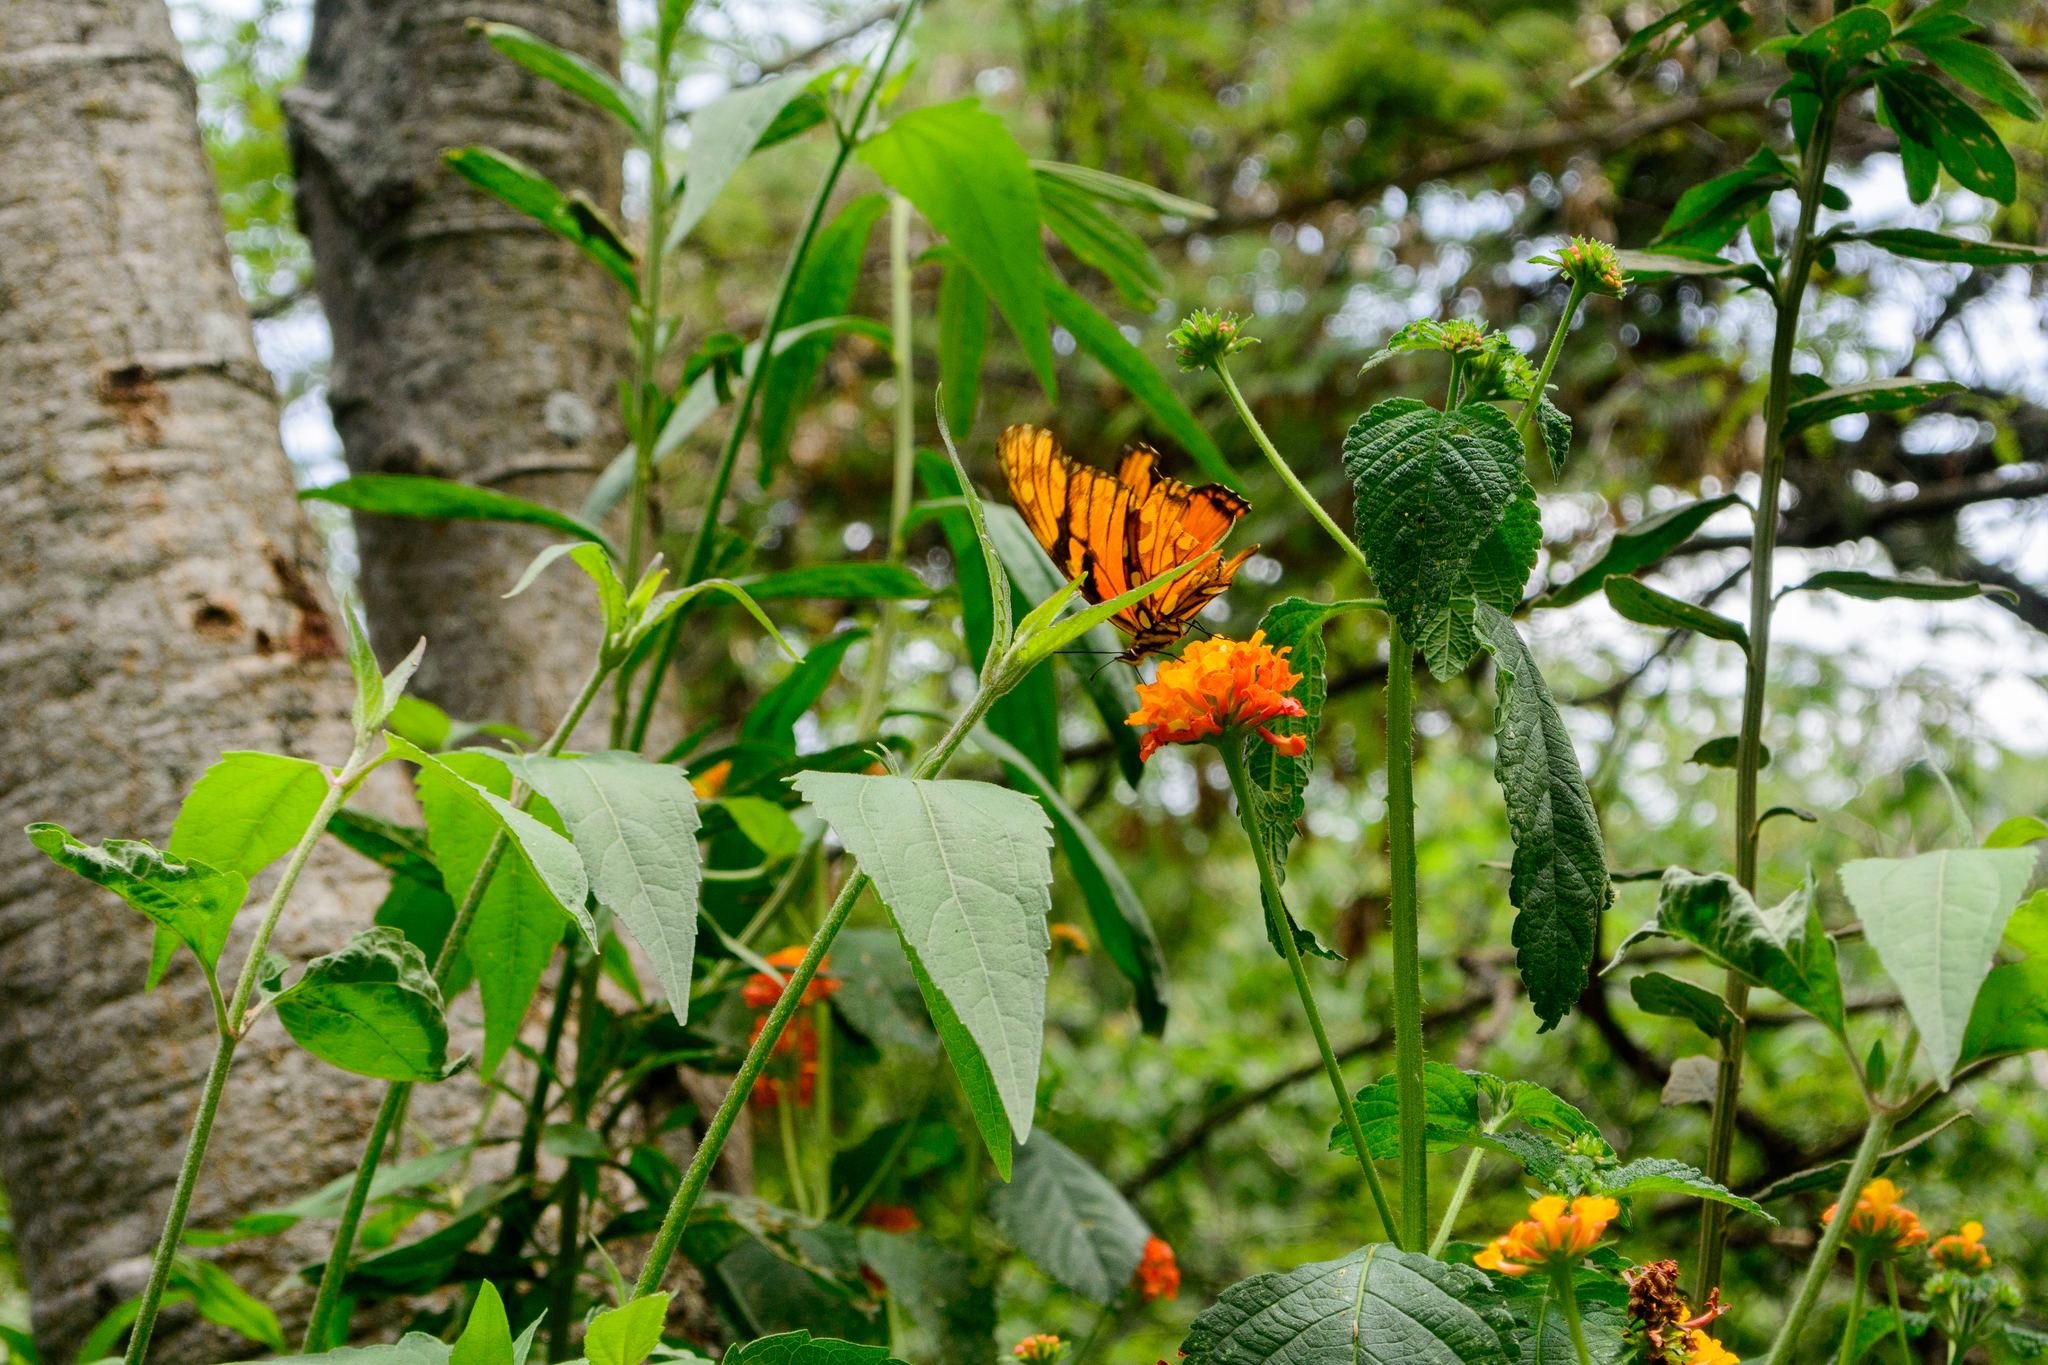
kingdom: Animalia
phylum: Arthropoda
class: Insecta
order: Lepidoptera
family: Nymphalidae
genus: Dione
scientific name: Dione juno
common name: Juno silverspot
